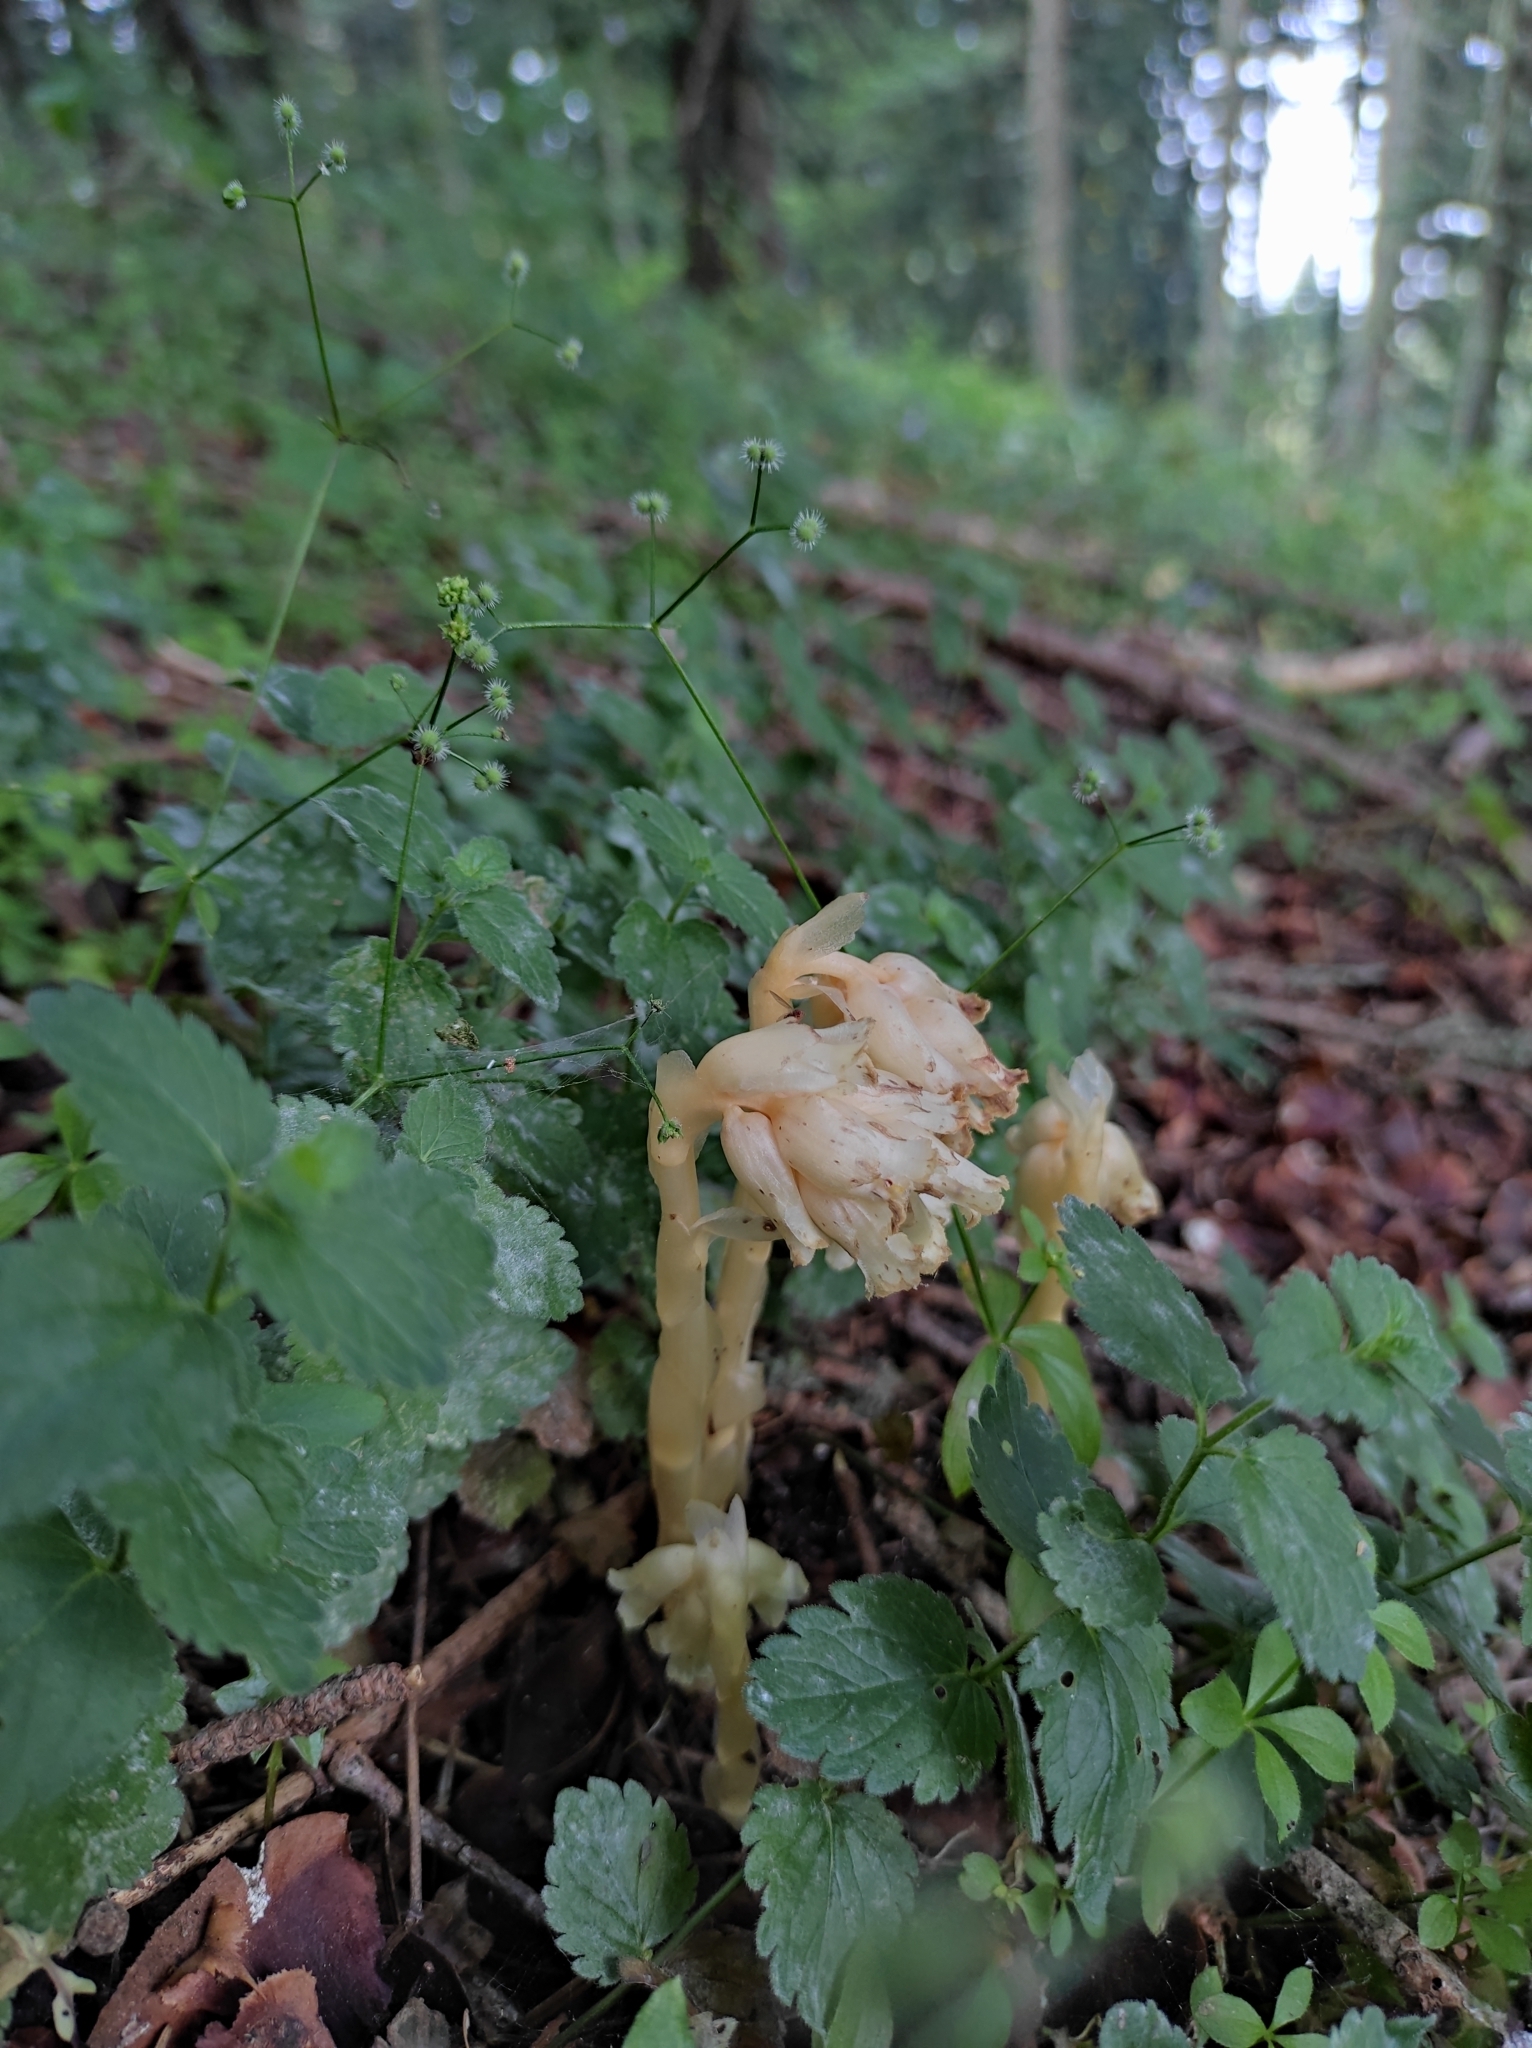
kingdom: Plantae
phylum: Tracheophyta
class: Magnoliopsida
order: Ericales
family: Ericaceae
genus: Hypopitys
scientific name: Hypopitys monotropa
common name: Yellow bird's-nest
